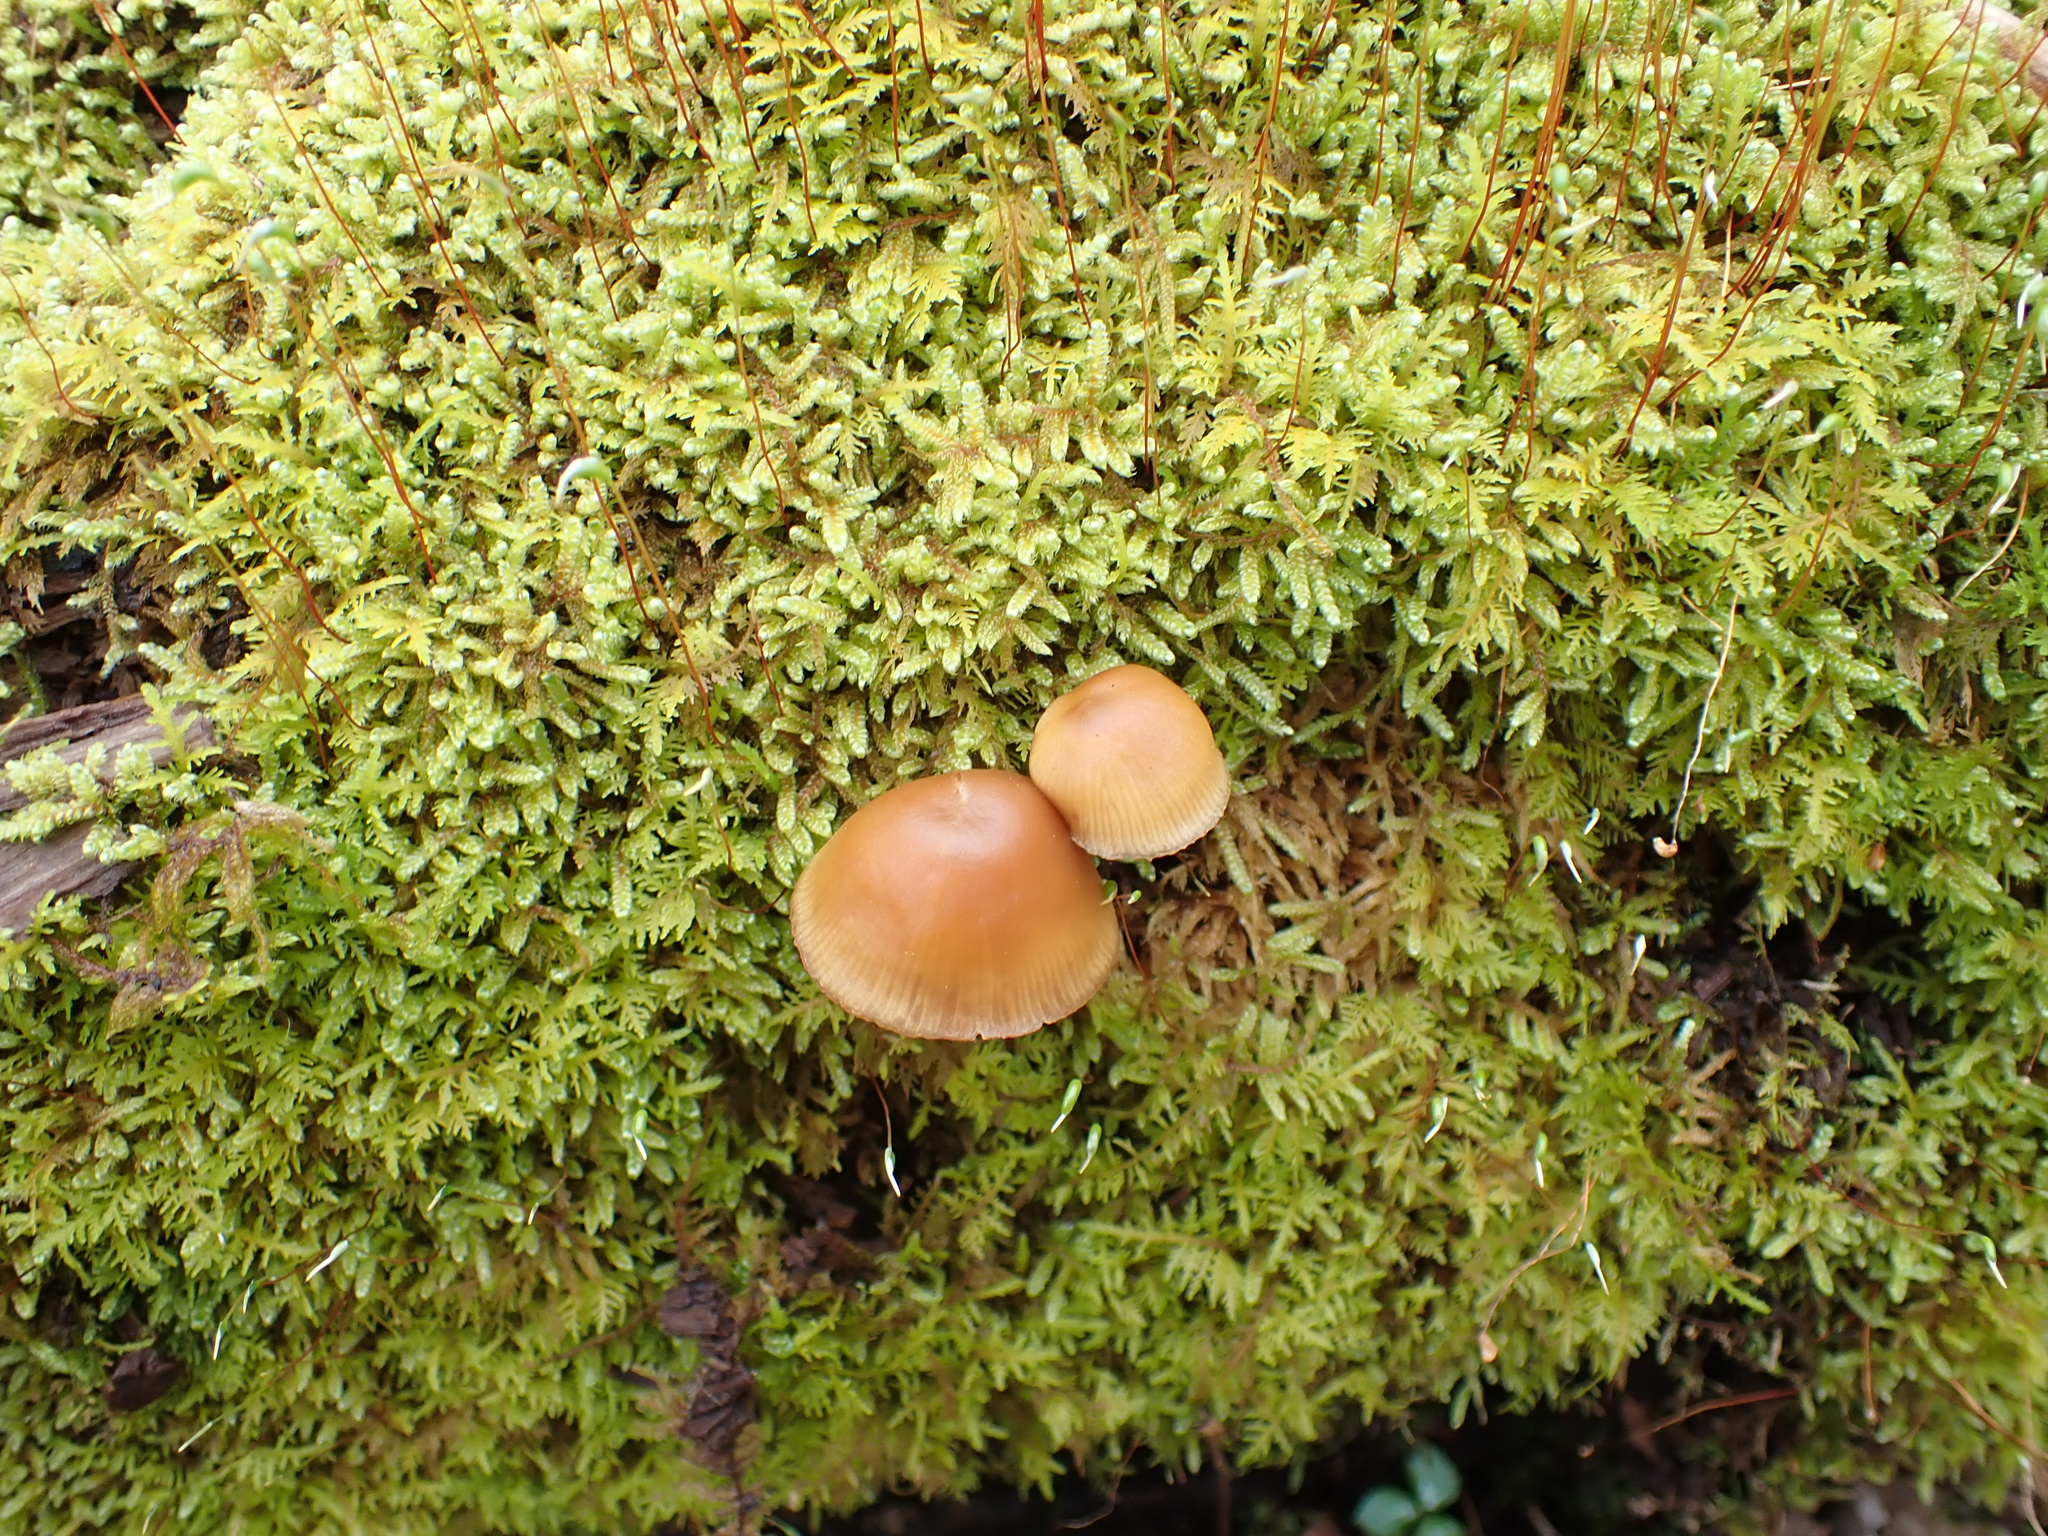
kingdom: Fungi
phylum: Basidiomycota
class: Agaricomycetes
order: Agaricales
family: Hymenogastraceae
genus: Galerina
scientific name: Galerina marginata
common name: Funeral bell
